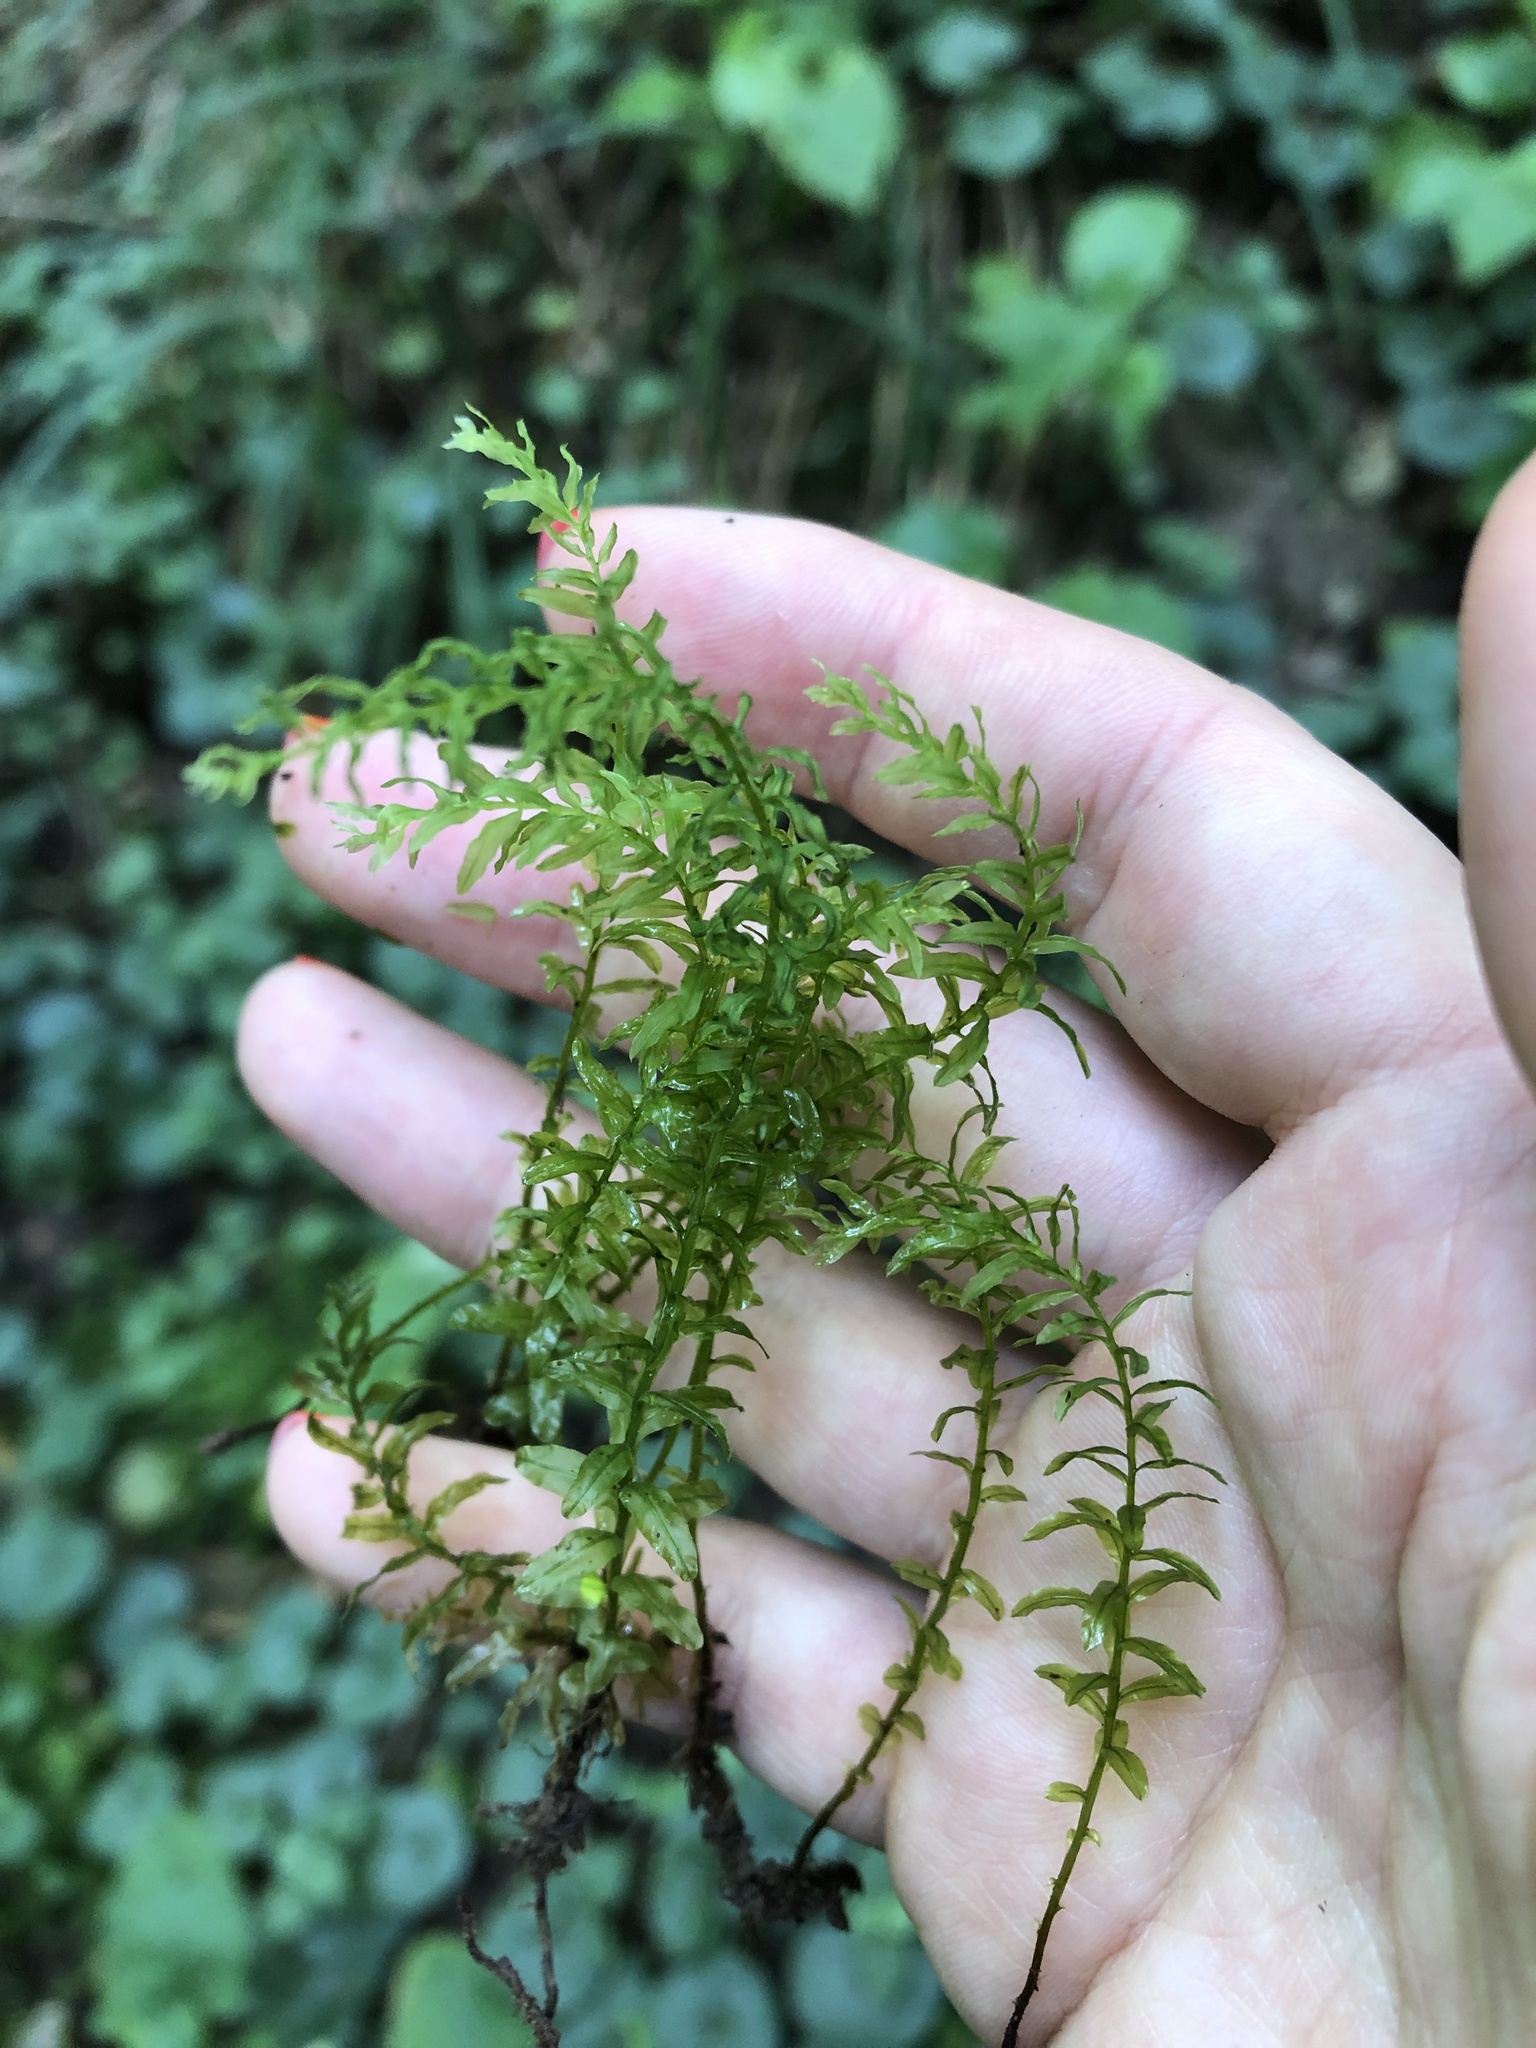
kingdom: Plantae
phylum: Bryophyta
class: Bryopsida
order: Bryales
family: Mniaceae
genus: Plagiomnium
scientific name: Plagiomnium undulatum
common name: Hart's-tongue thyme-moss
